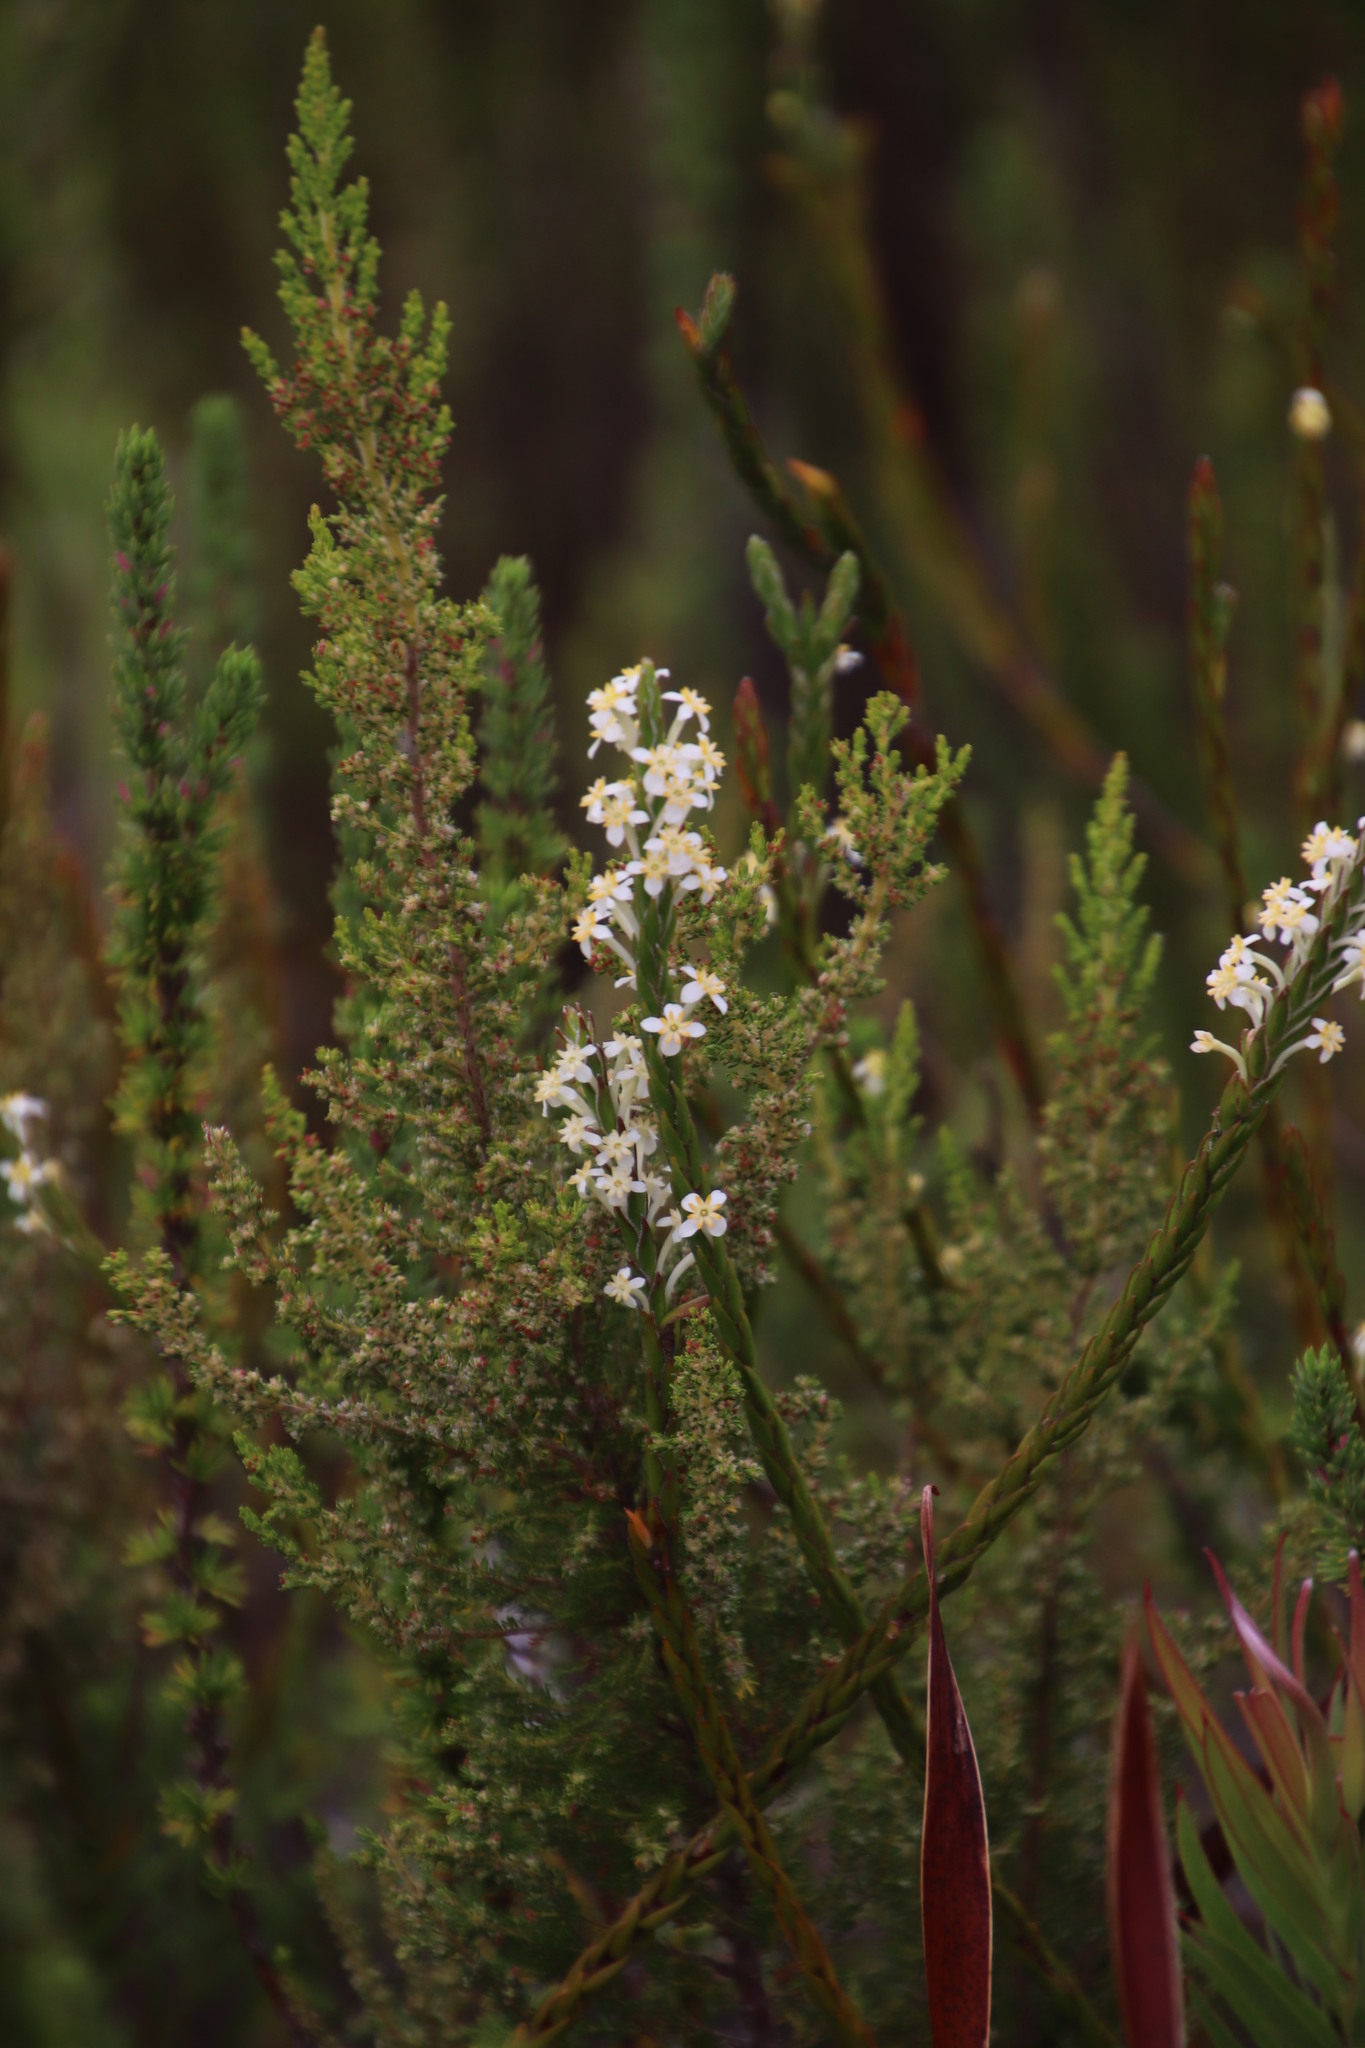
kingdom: Plantae
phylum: Tracheophyta
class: Magnoliopsida
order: Malvales
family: Thymelaeaceae
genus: Struthiola
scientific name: Struthiola ciliata
